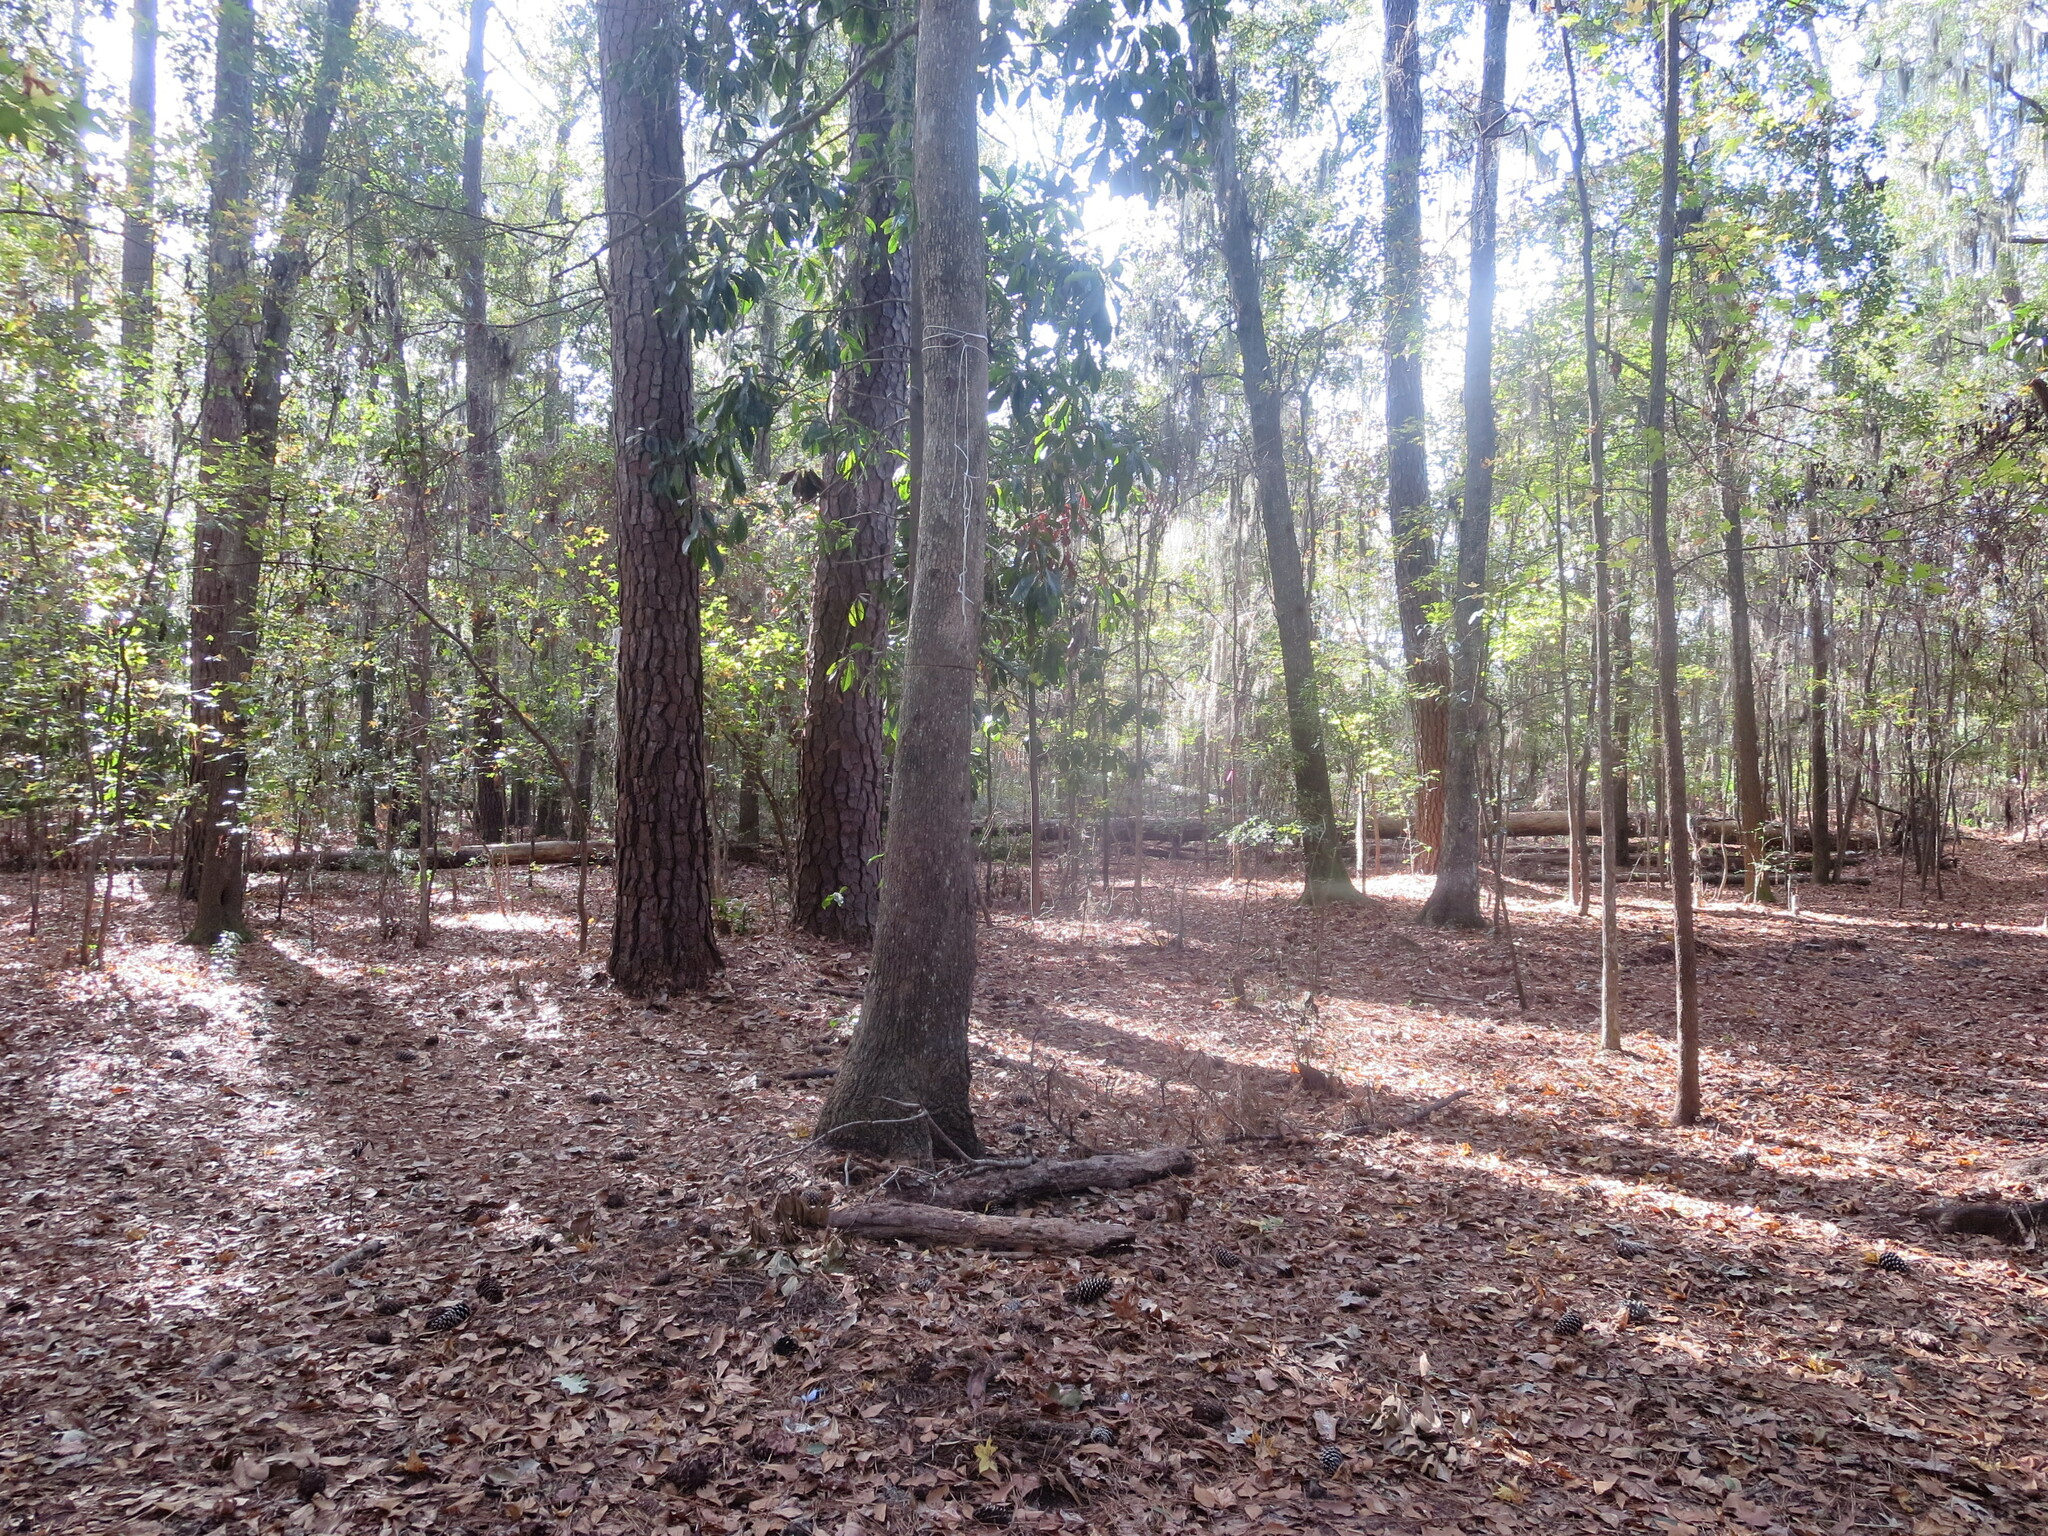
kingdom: Plantae
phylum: Tracheophyta
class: Magnoliopsida
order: Magnoliales
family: Magnoliaceae
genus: Magnolia
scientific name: Magnolia grandiflora
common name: Southern magnolia
